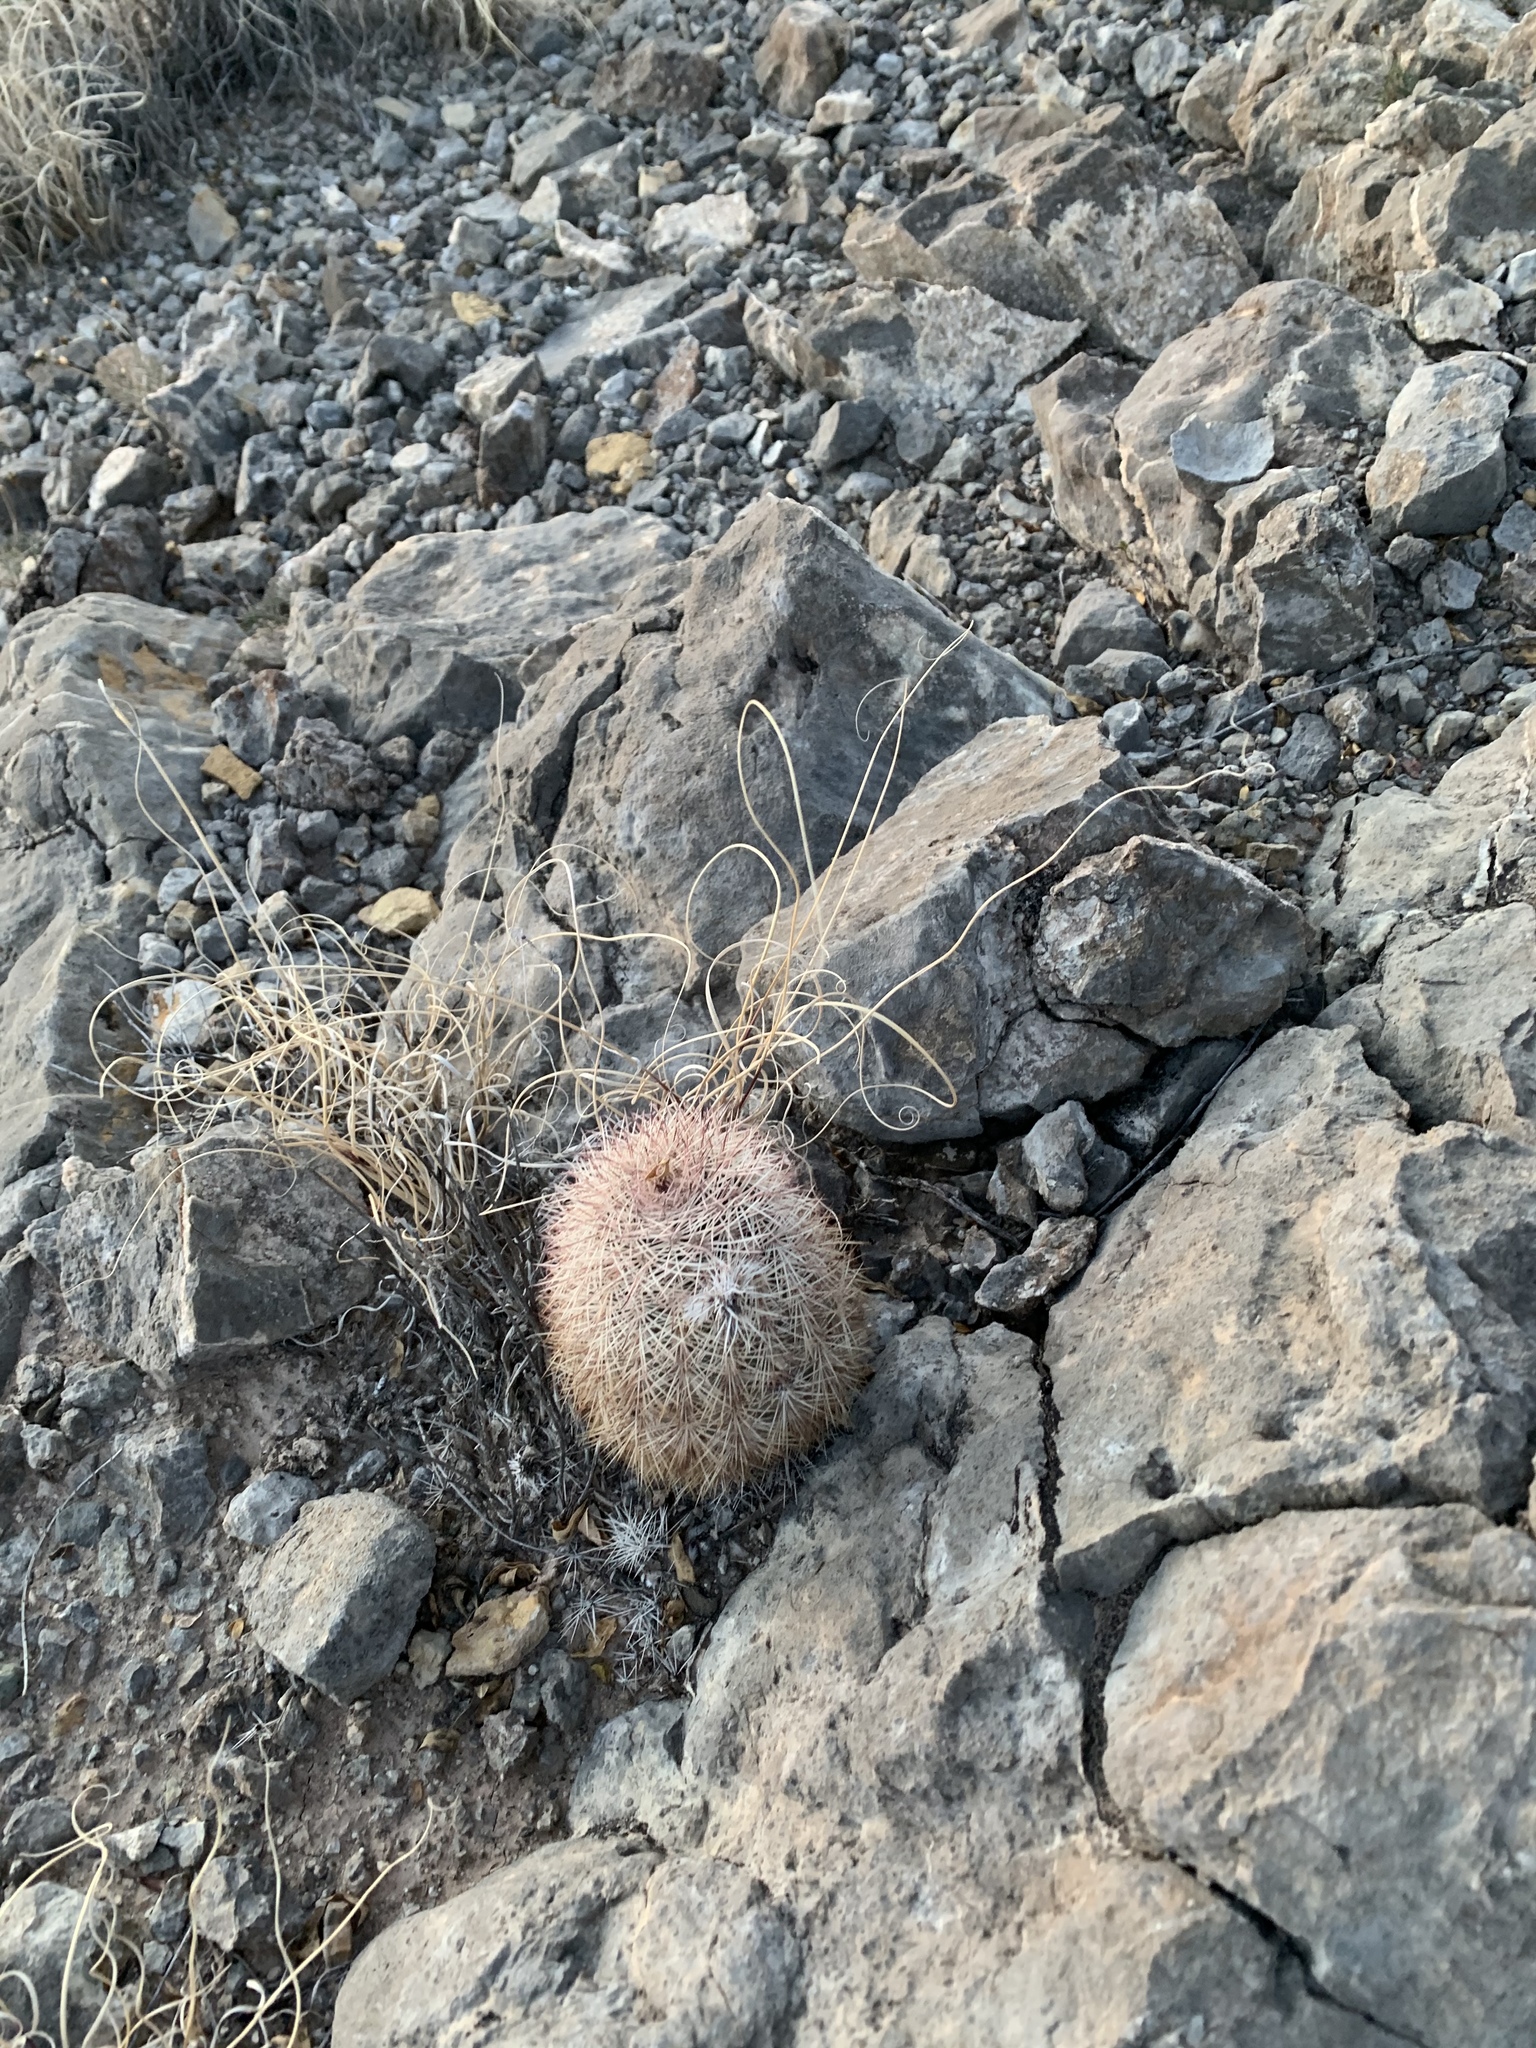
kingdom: Plantae
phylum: Tracheophyta
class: Magnoliopsida
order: Caryophyllales
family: Cactaceae
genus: Echinocereus
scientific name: Echinocereus dasyacanthus
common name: Spiny hedgehog cactus
